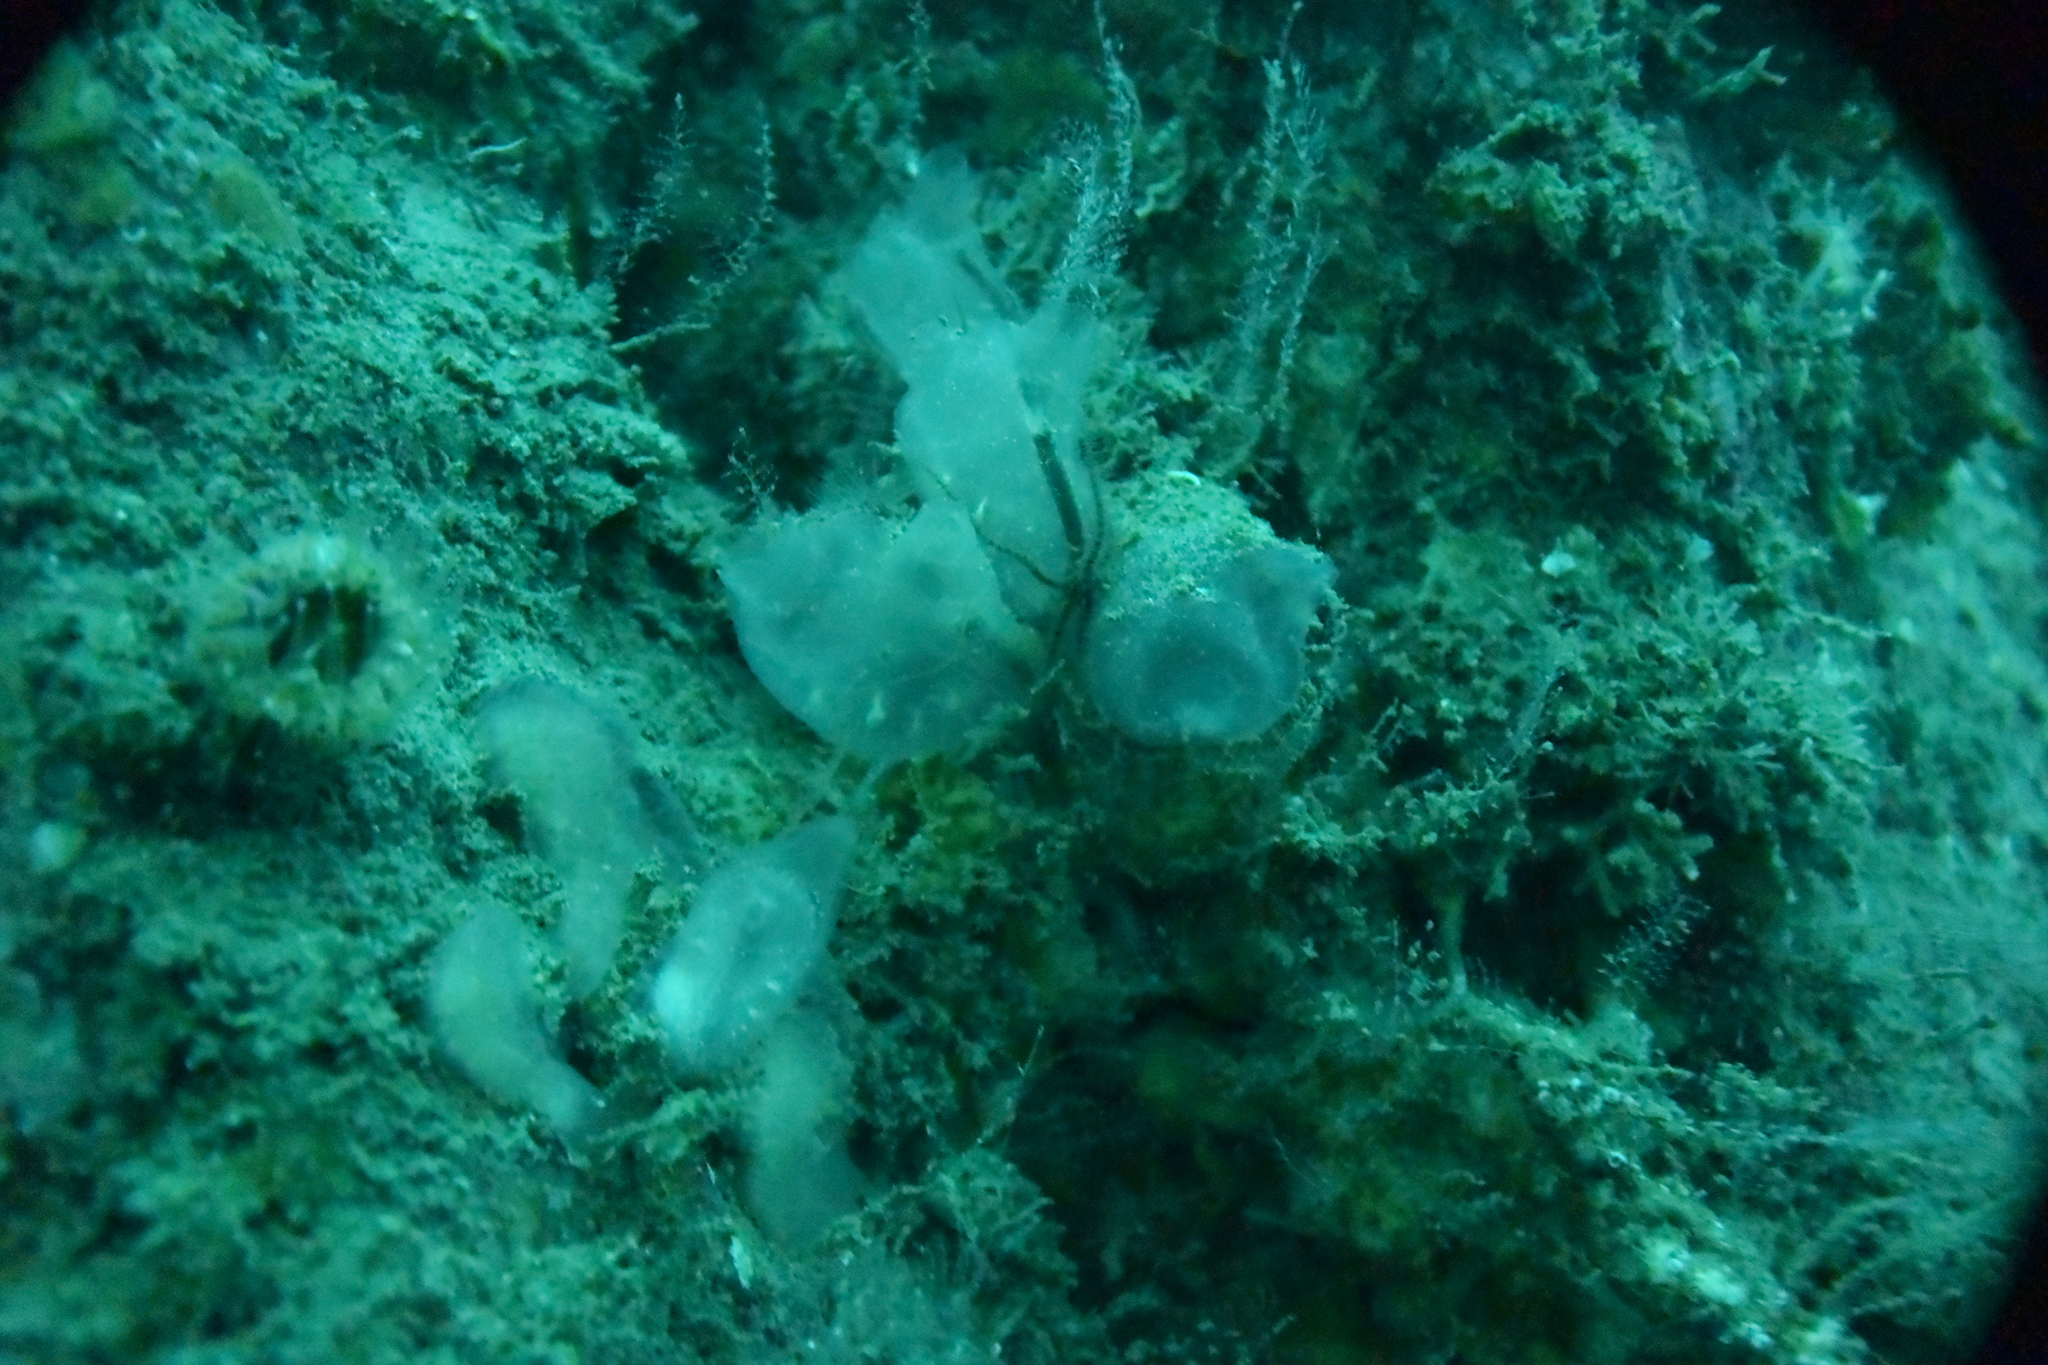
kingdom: Animalia
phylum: Chordata
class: Ascidiacea
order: Phlebobranchia
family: Corellidae
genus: Corella
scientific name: Corella willmeriana
